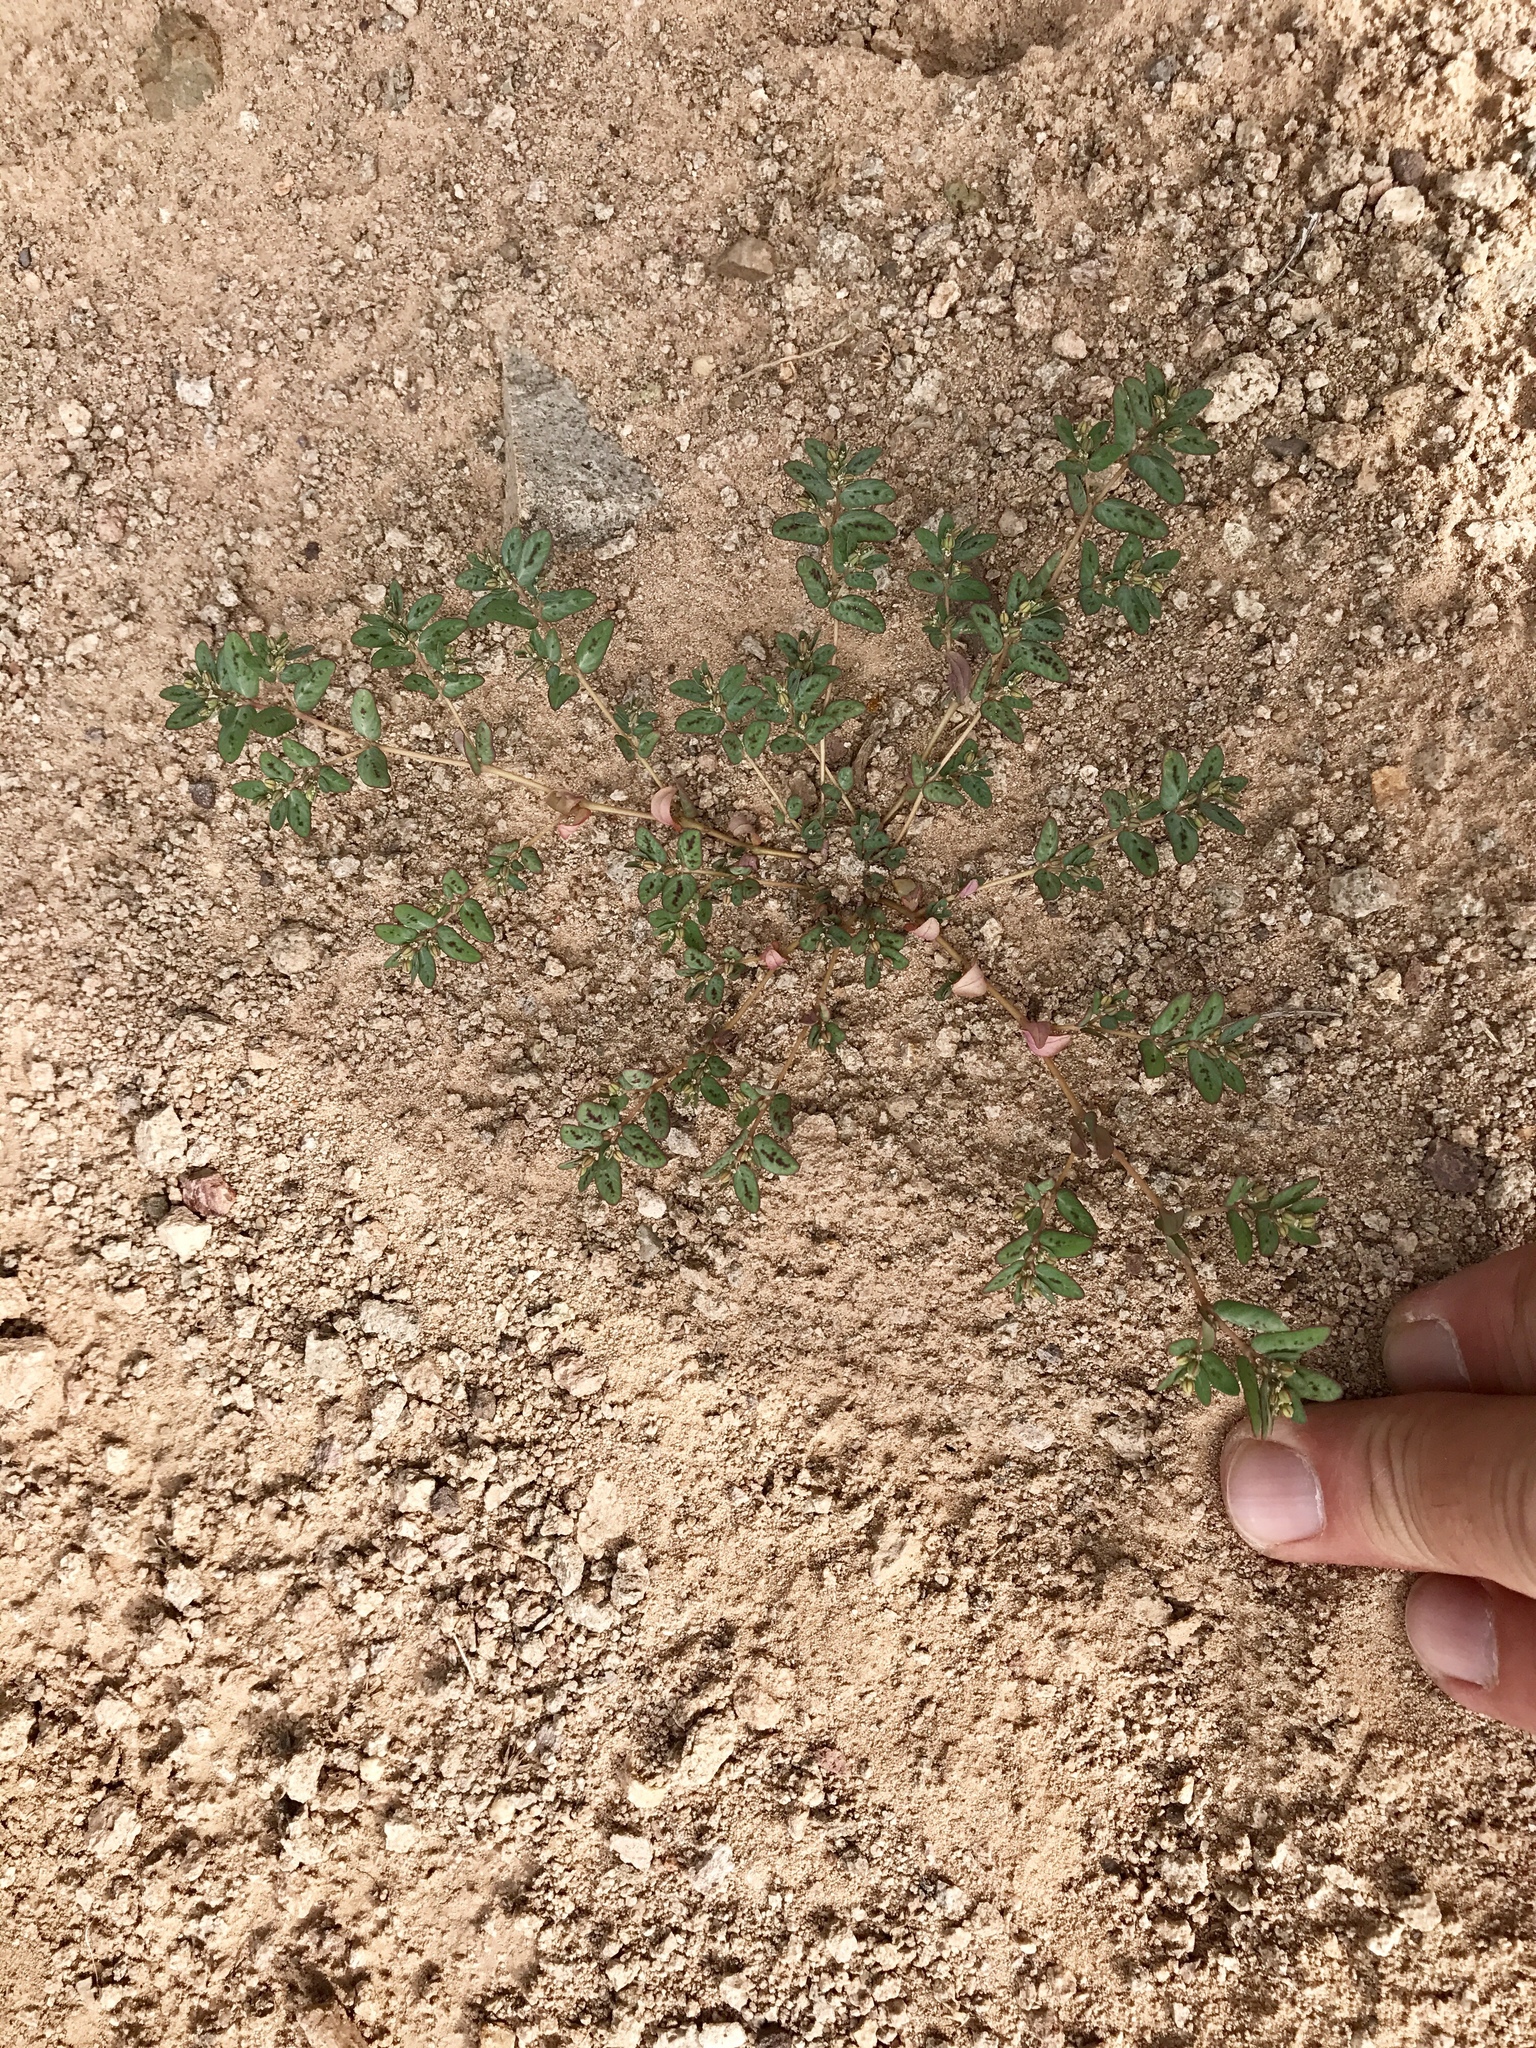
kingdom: Plantae
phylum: Tracheophyta
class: Magnoliopsida
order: Malpighiales
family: Euphorbiaceae
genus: Euphorbia
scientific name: Euphorbia abramsiana
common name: Abram's spurge
